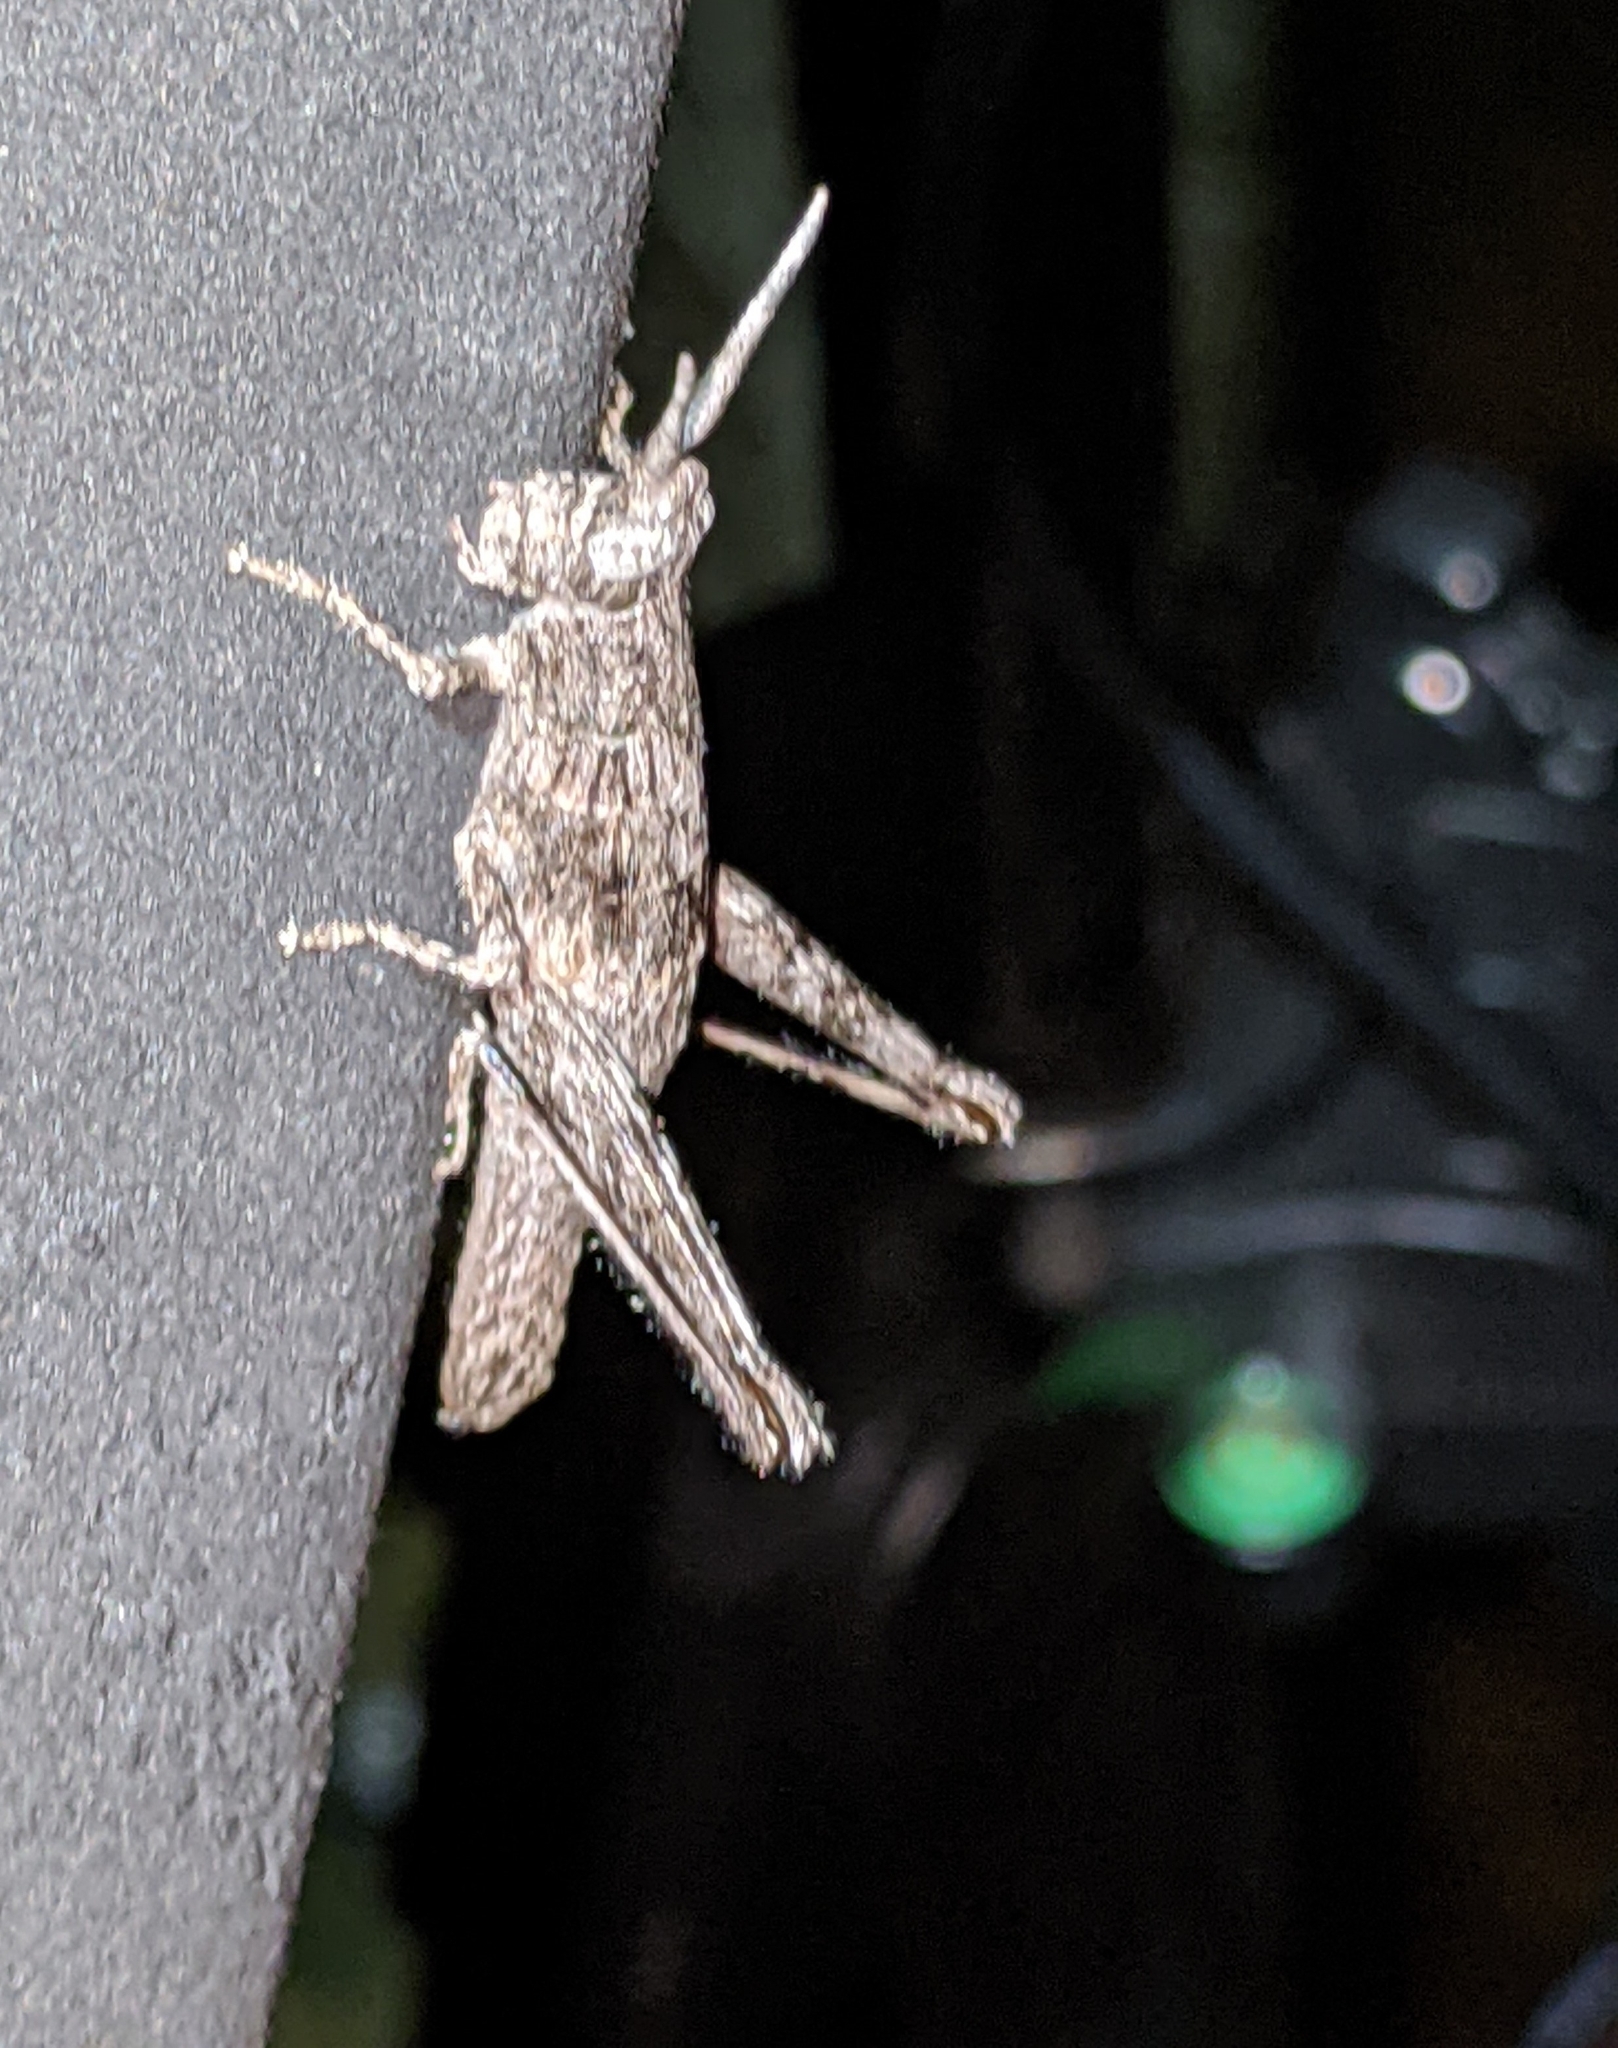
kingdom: Animalia
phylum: Arthropoda
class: Insecta
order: Orthoptera
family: Acrididae
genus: Clematodes
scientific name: Clematodes larreae
